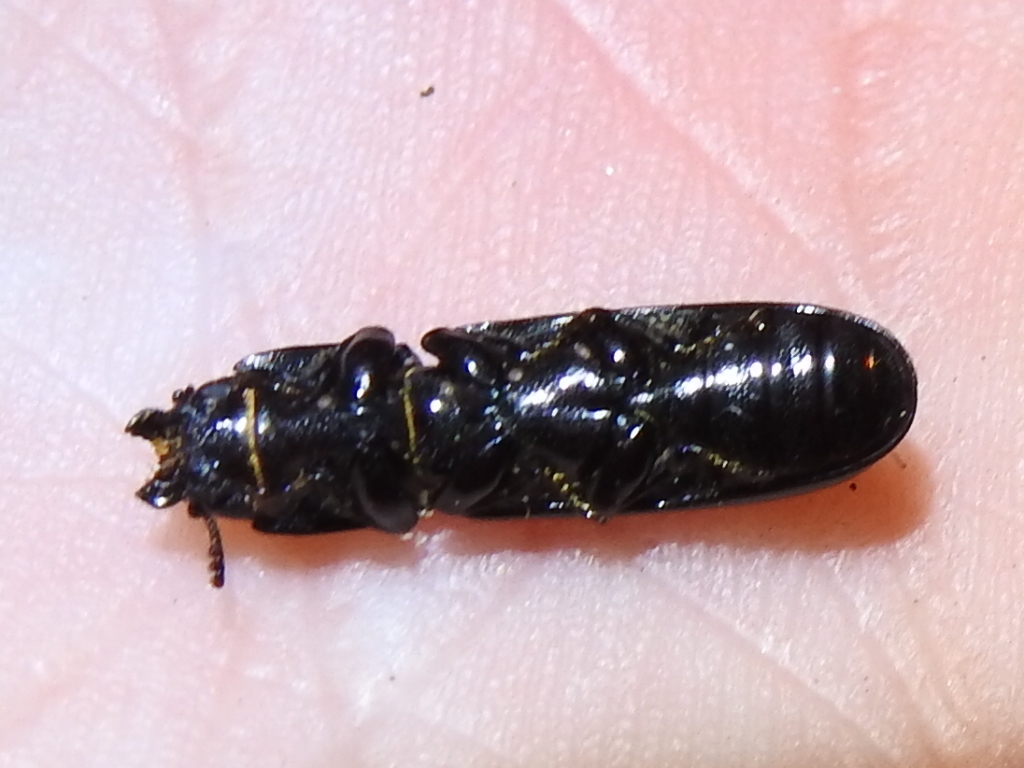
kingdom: Animalia
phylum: Arthropoda
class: Insecta
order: Coleoptera
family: Trogossitidae
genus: Airora
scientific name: Airora cylindrica
